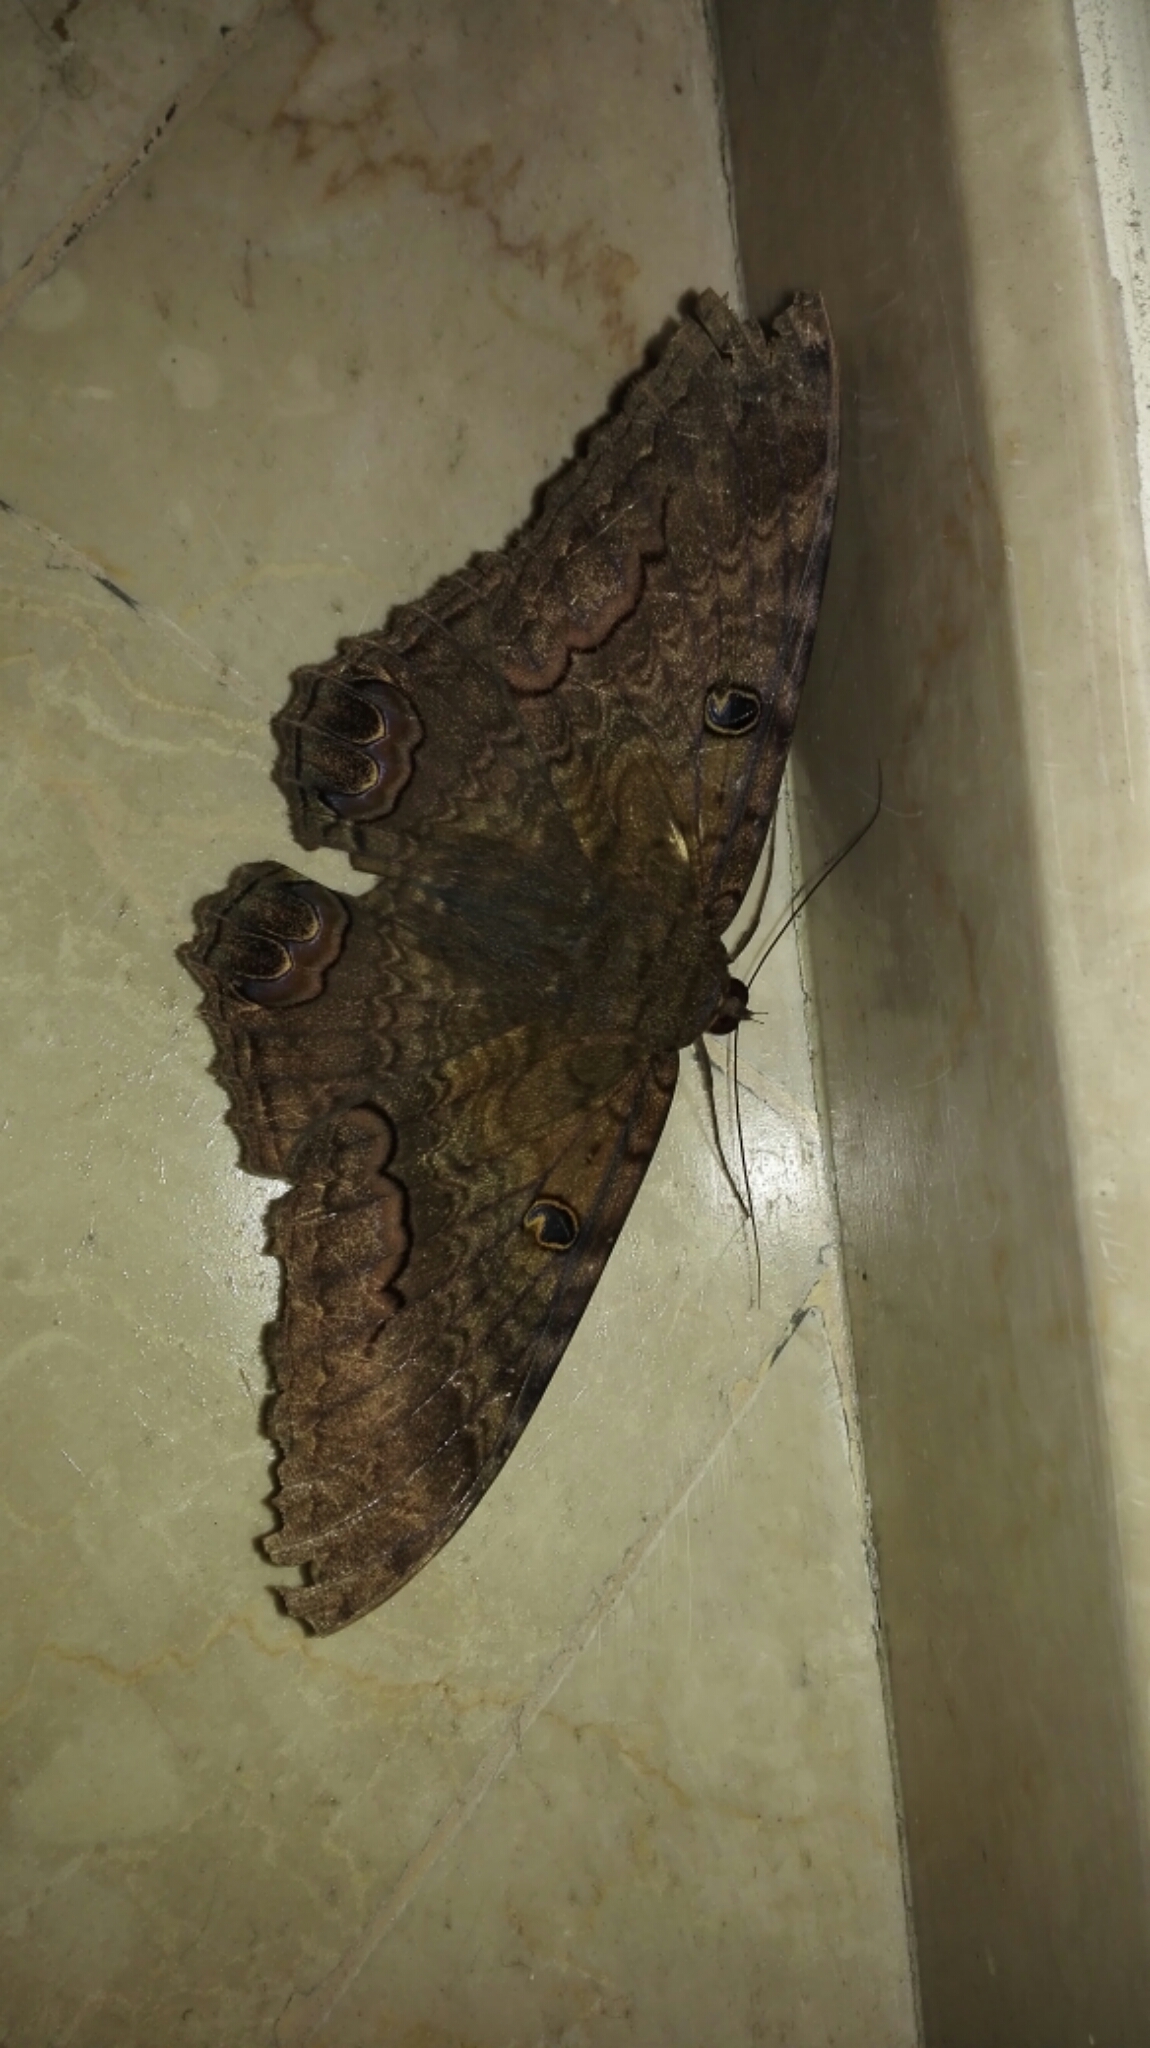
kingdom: Animalia
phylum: Arthropoda
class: Insecta
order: Lepidoptera
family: Erebidae
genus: Ascalapha
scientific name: Ascalapha odorata
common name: Black witch
